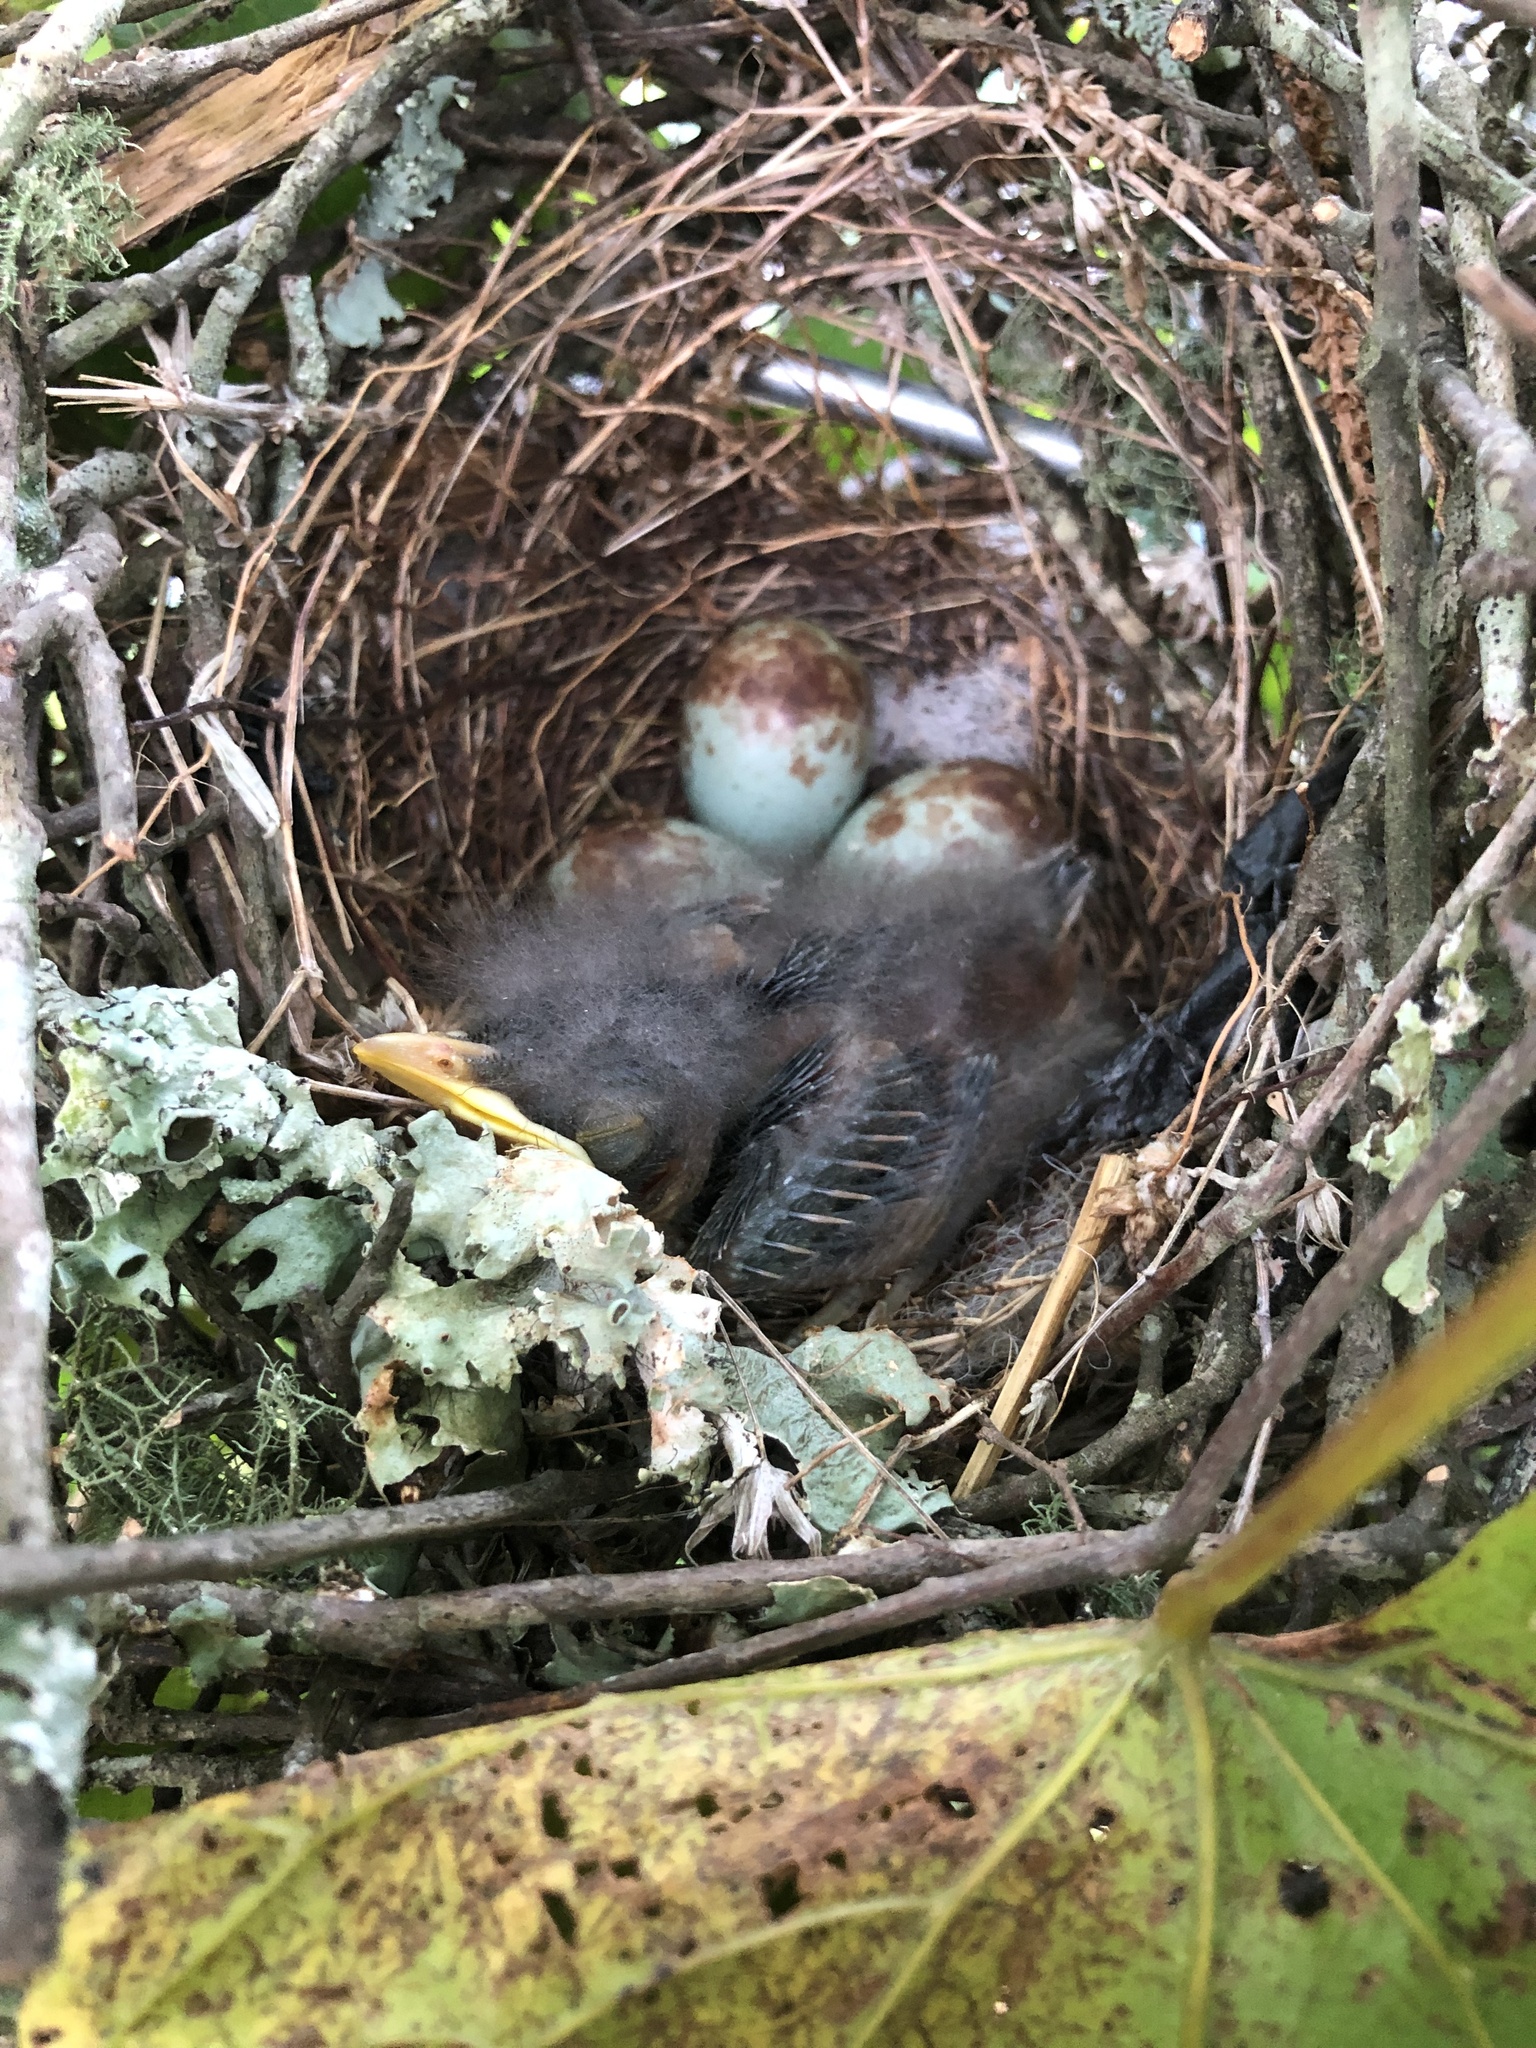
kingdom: Animalia
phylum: Chordata
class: Aves
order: Passeriformes
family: Mimidae
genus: Mimus
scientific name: Mimus polyglottos
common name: Northern mockingbird
